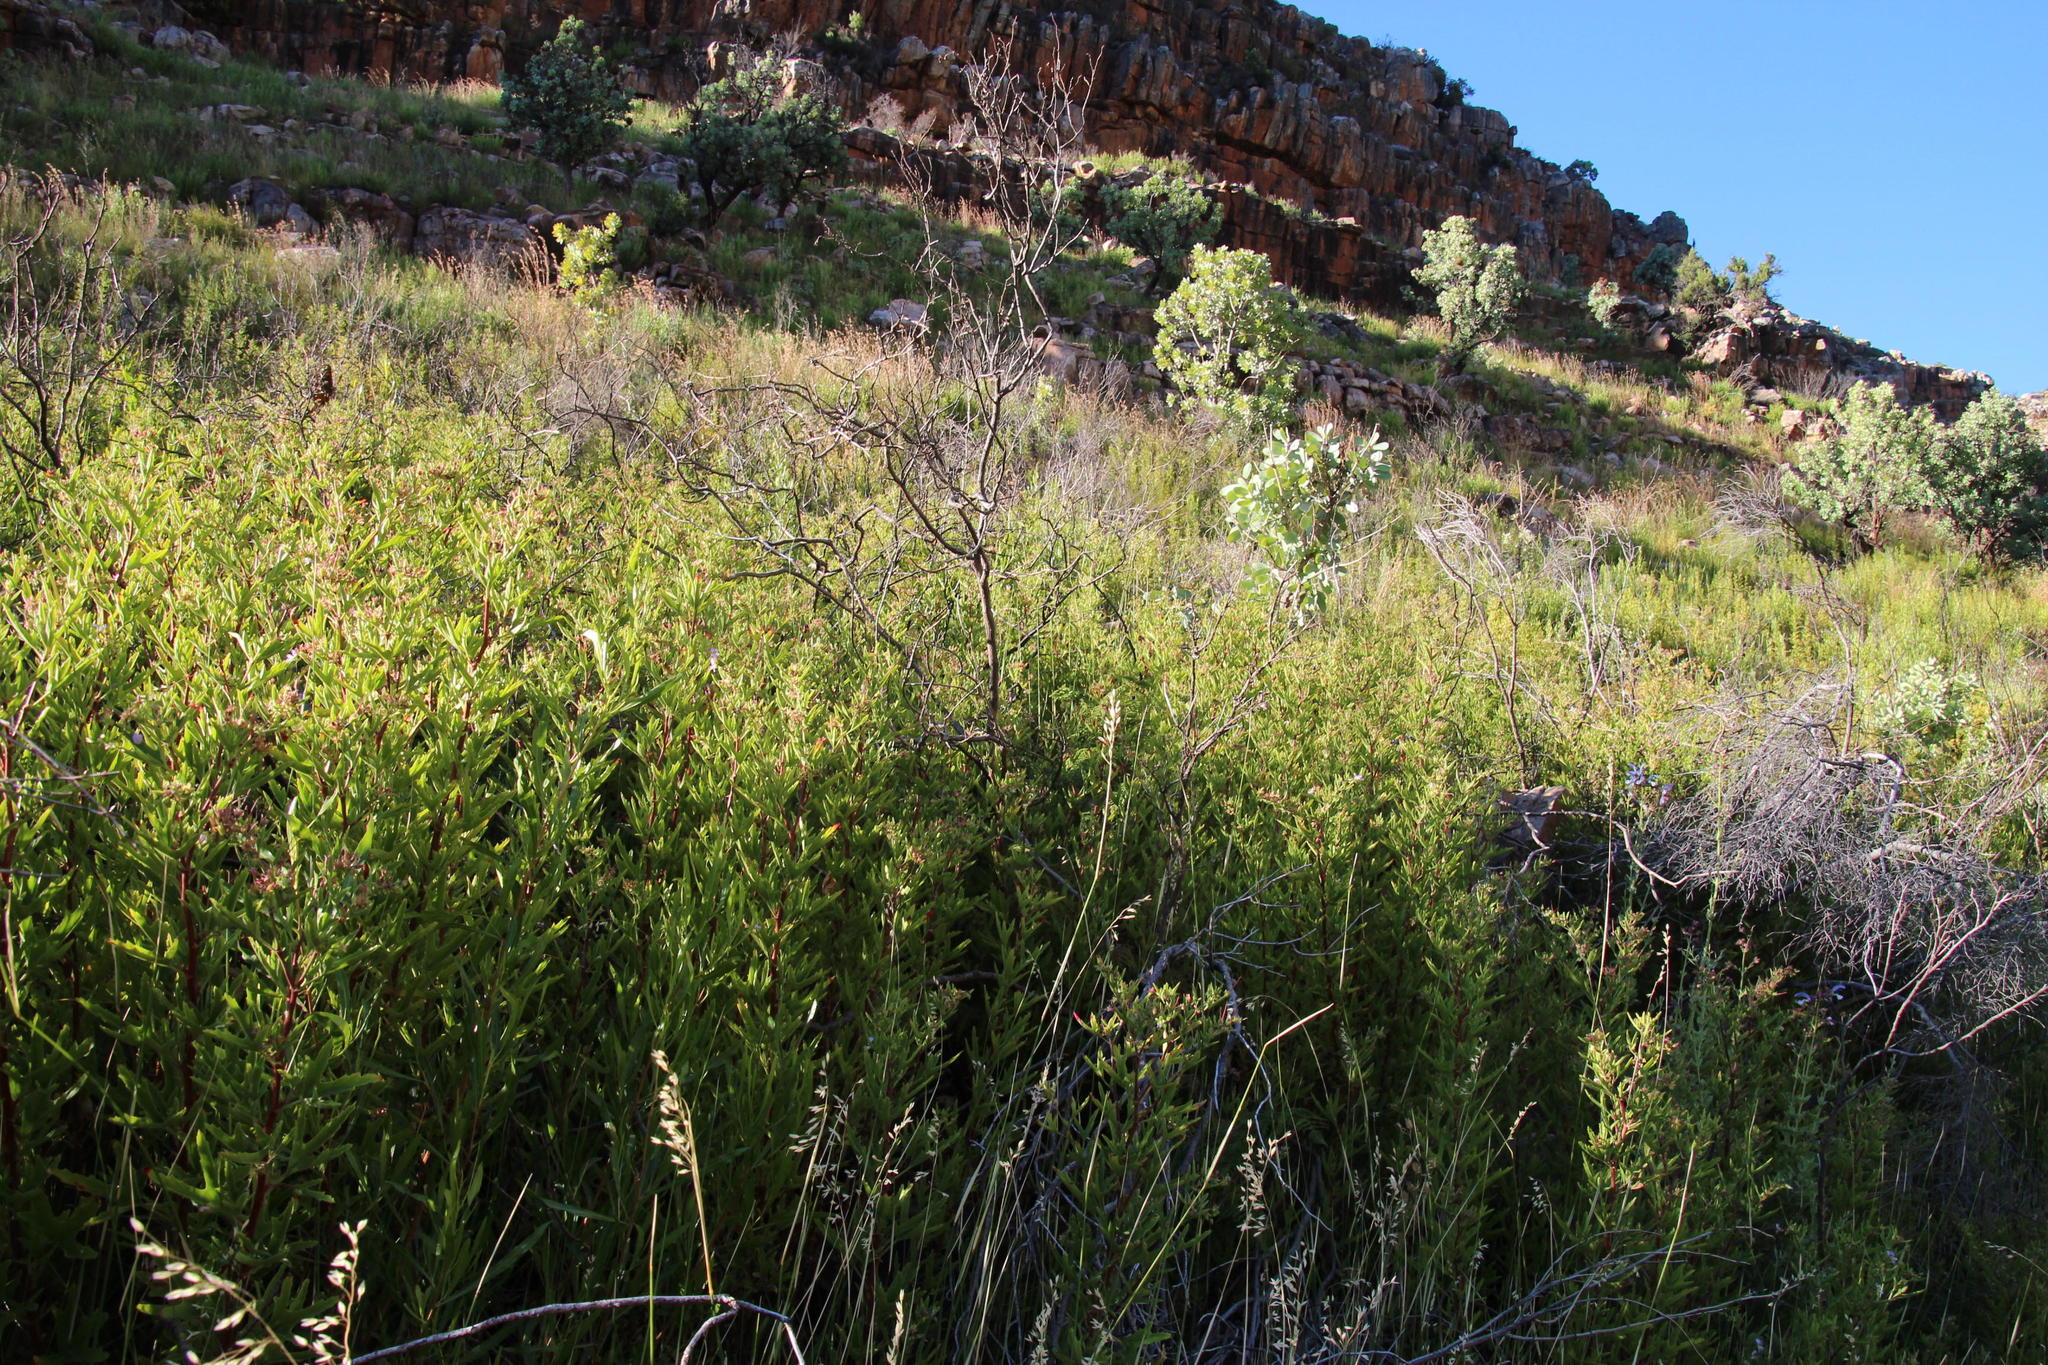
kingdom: Plantae
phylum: Tracheophyta
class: Magnoliopsida
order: Geraniales
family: Geraniaceae
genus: Pelargonium
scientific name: Pelargonium scabrum
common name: Apricot geranium
